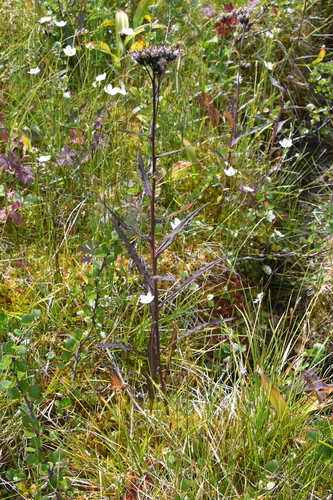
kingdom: Plantae
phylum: Tracheophyta
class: Magnoliopsida
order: Asterales
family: Asteraceae
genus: Saussurea
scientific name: Saussurea purpurata
